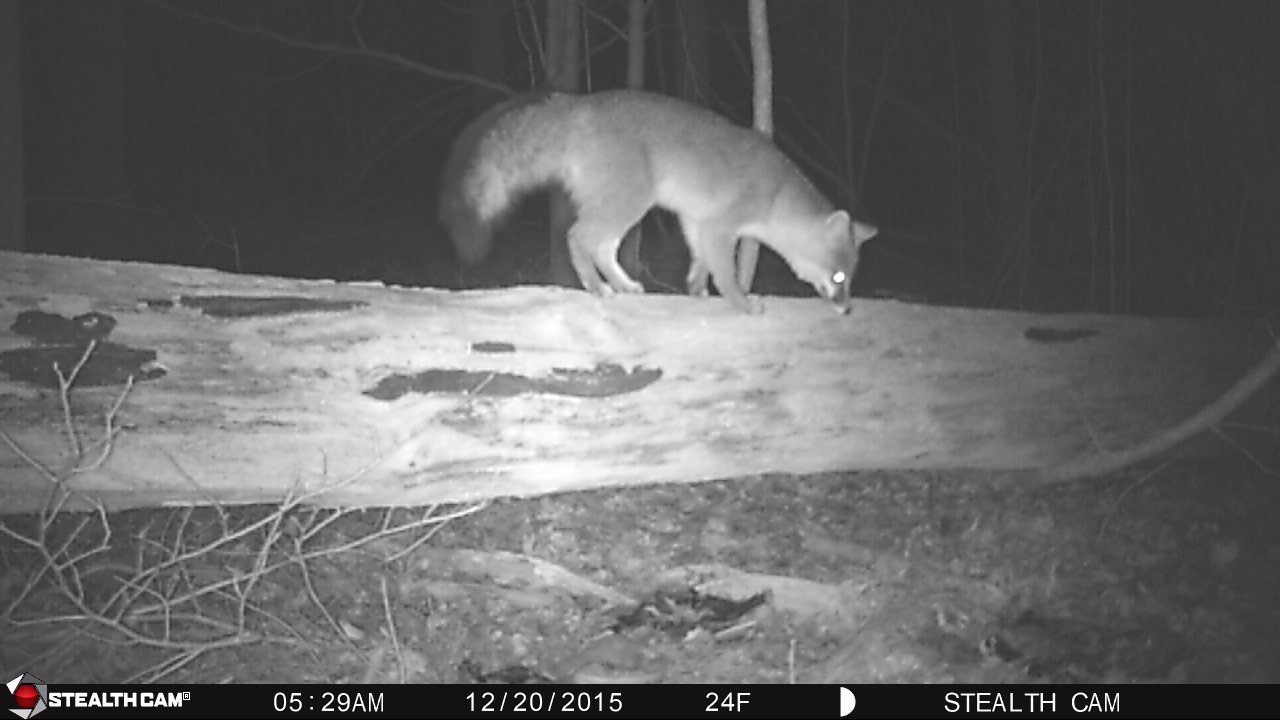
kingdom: Animalia
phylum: Chordata
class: Mammalia
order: Carnivora
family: Canidae
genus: Urocyon
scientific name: Urocyon cinereoargenteus
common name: Gray fox
